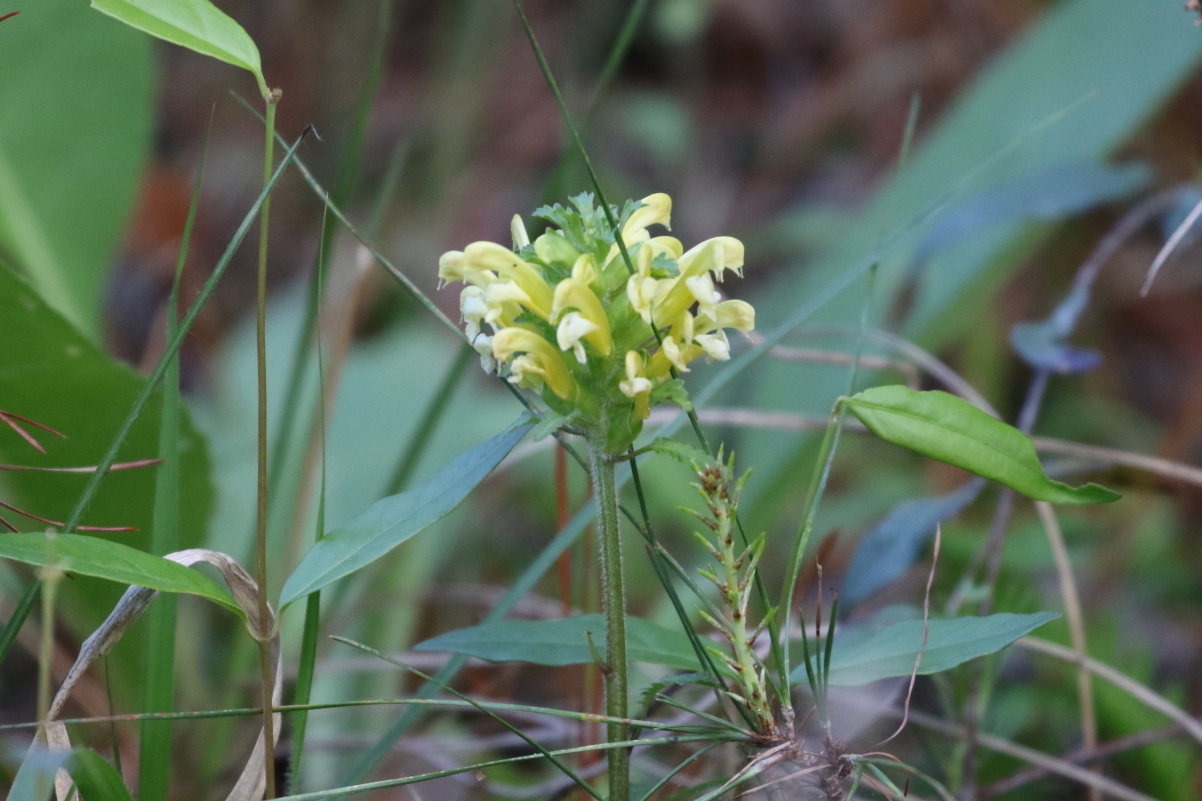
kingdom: Plantae
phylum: Tracheophyta
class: Magnoliopsida
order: Lamiales
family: Orobanchaceae
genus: Pedicularis
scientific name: Pedicularis canadensis
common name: Early lousewort
